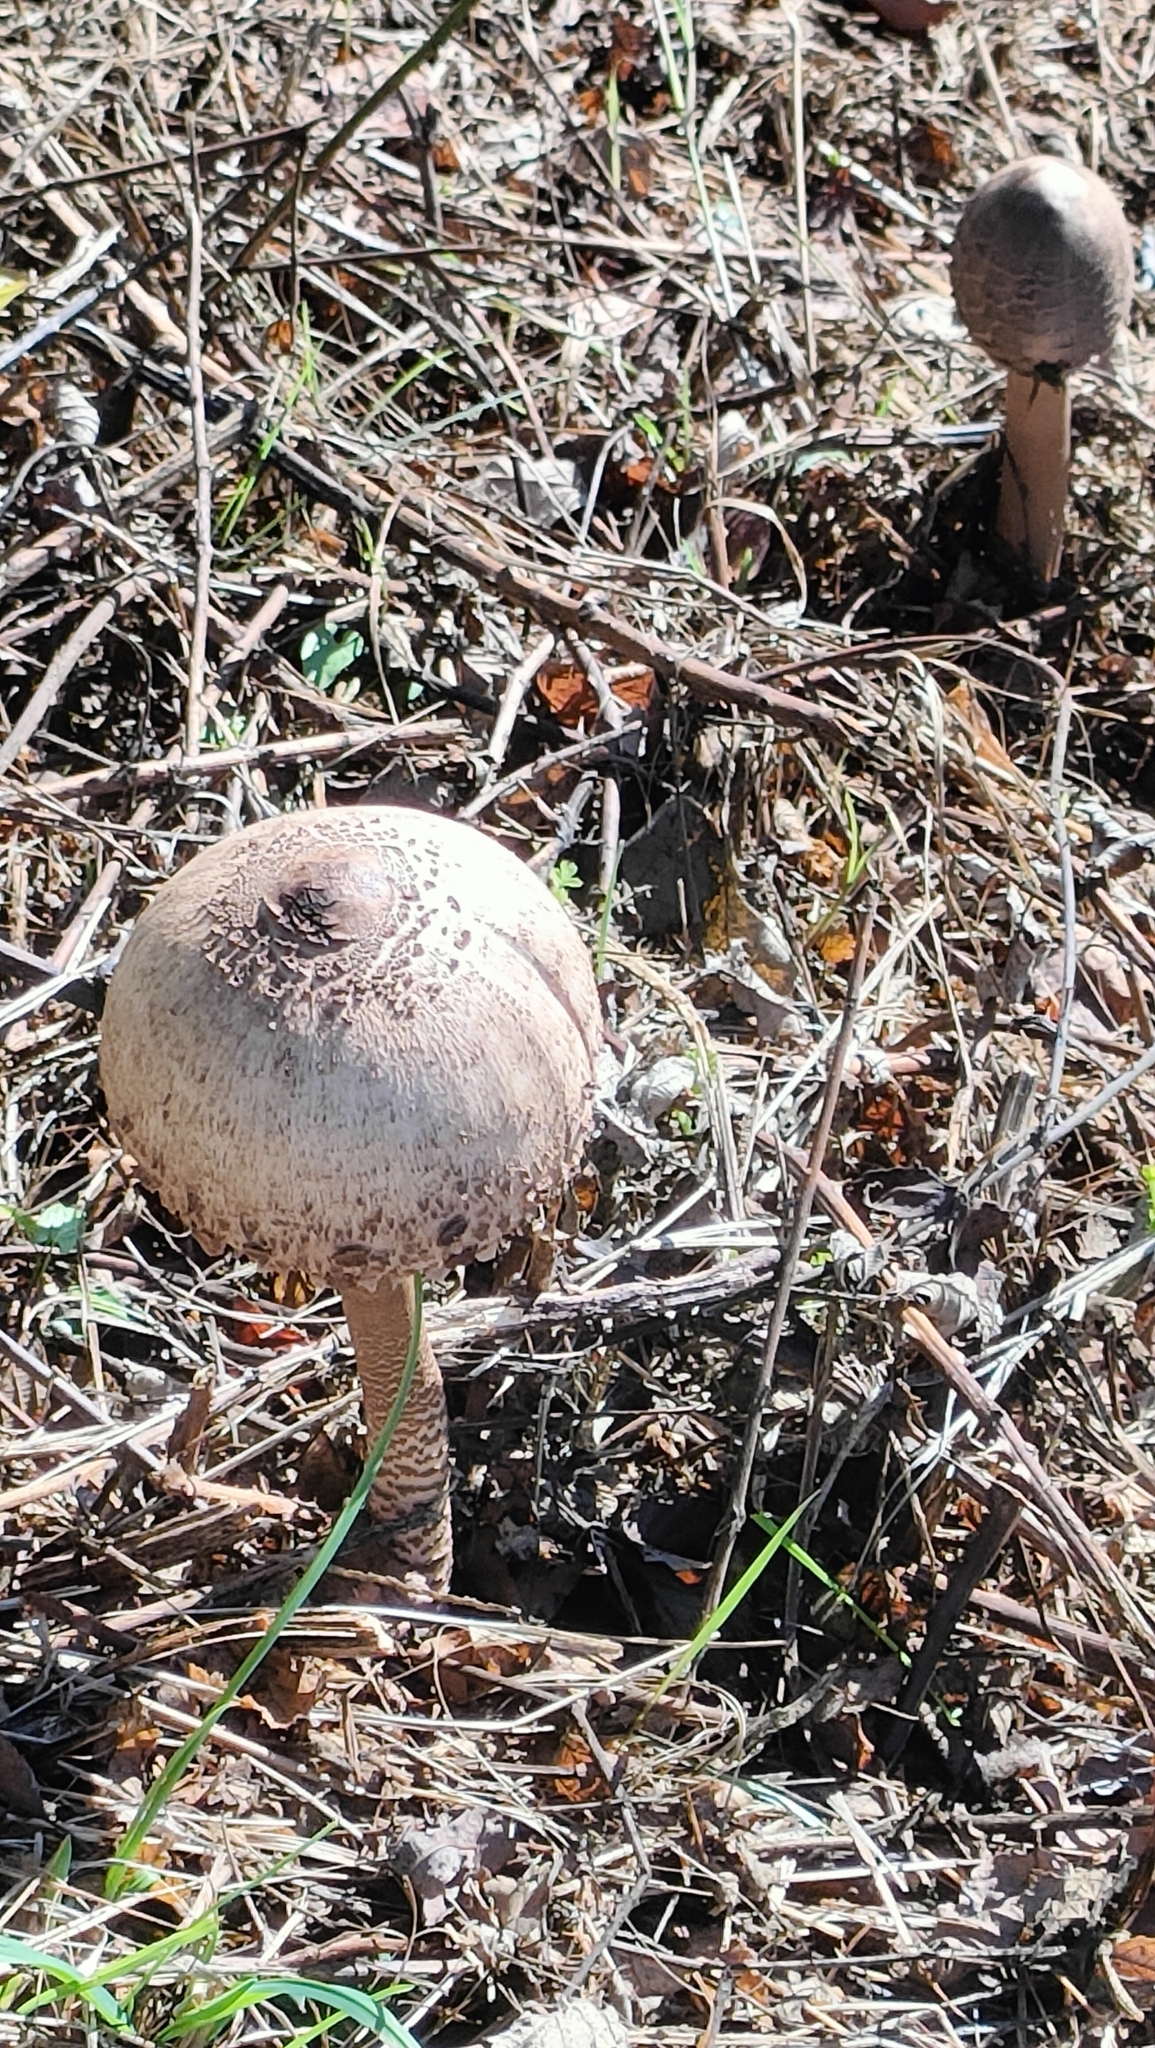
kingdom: Fungi
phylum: Basidiomycota
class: Agaricomycetes
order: Agaricales
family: Agaricaceae
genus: Macrolepiota
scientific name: Macrolepiota procera
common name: Parasol
